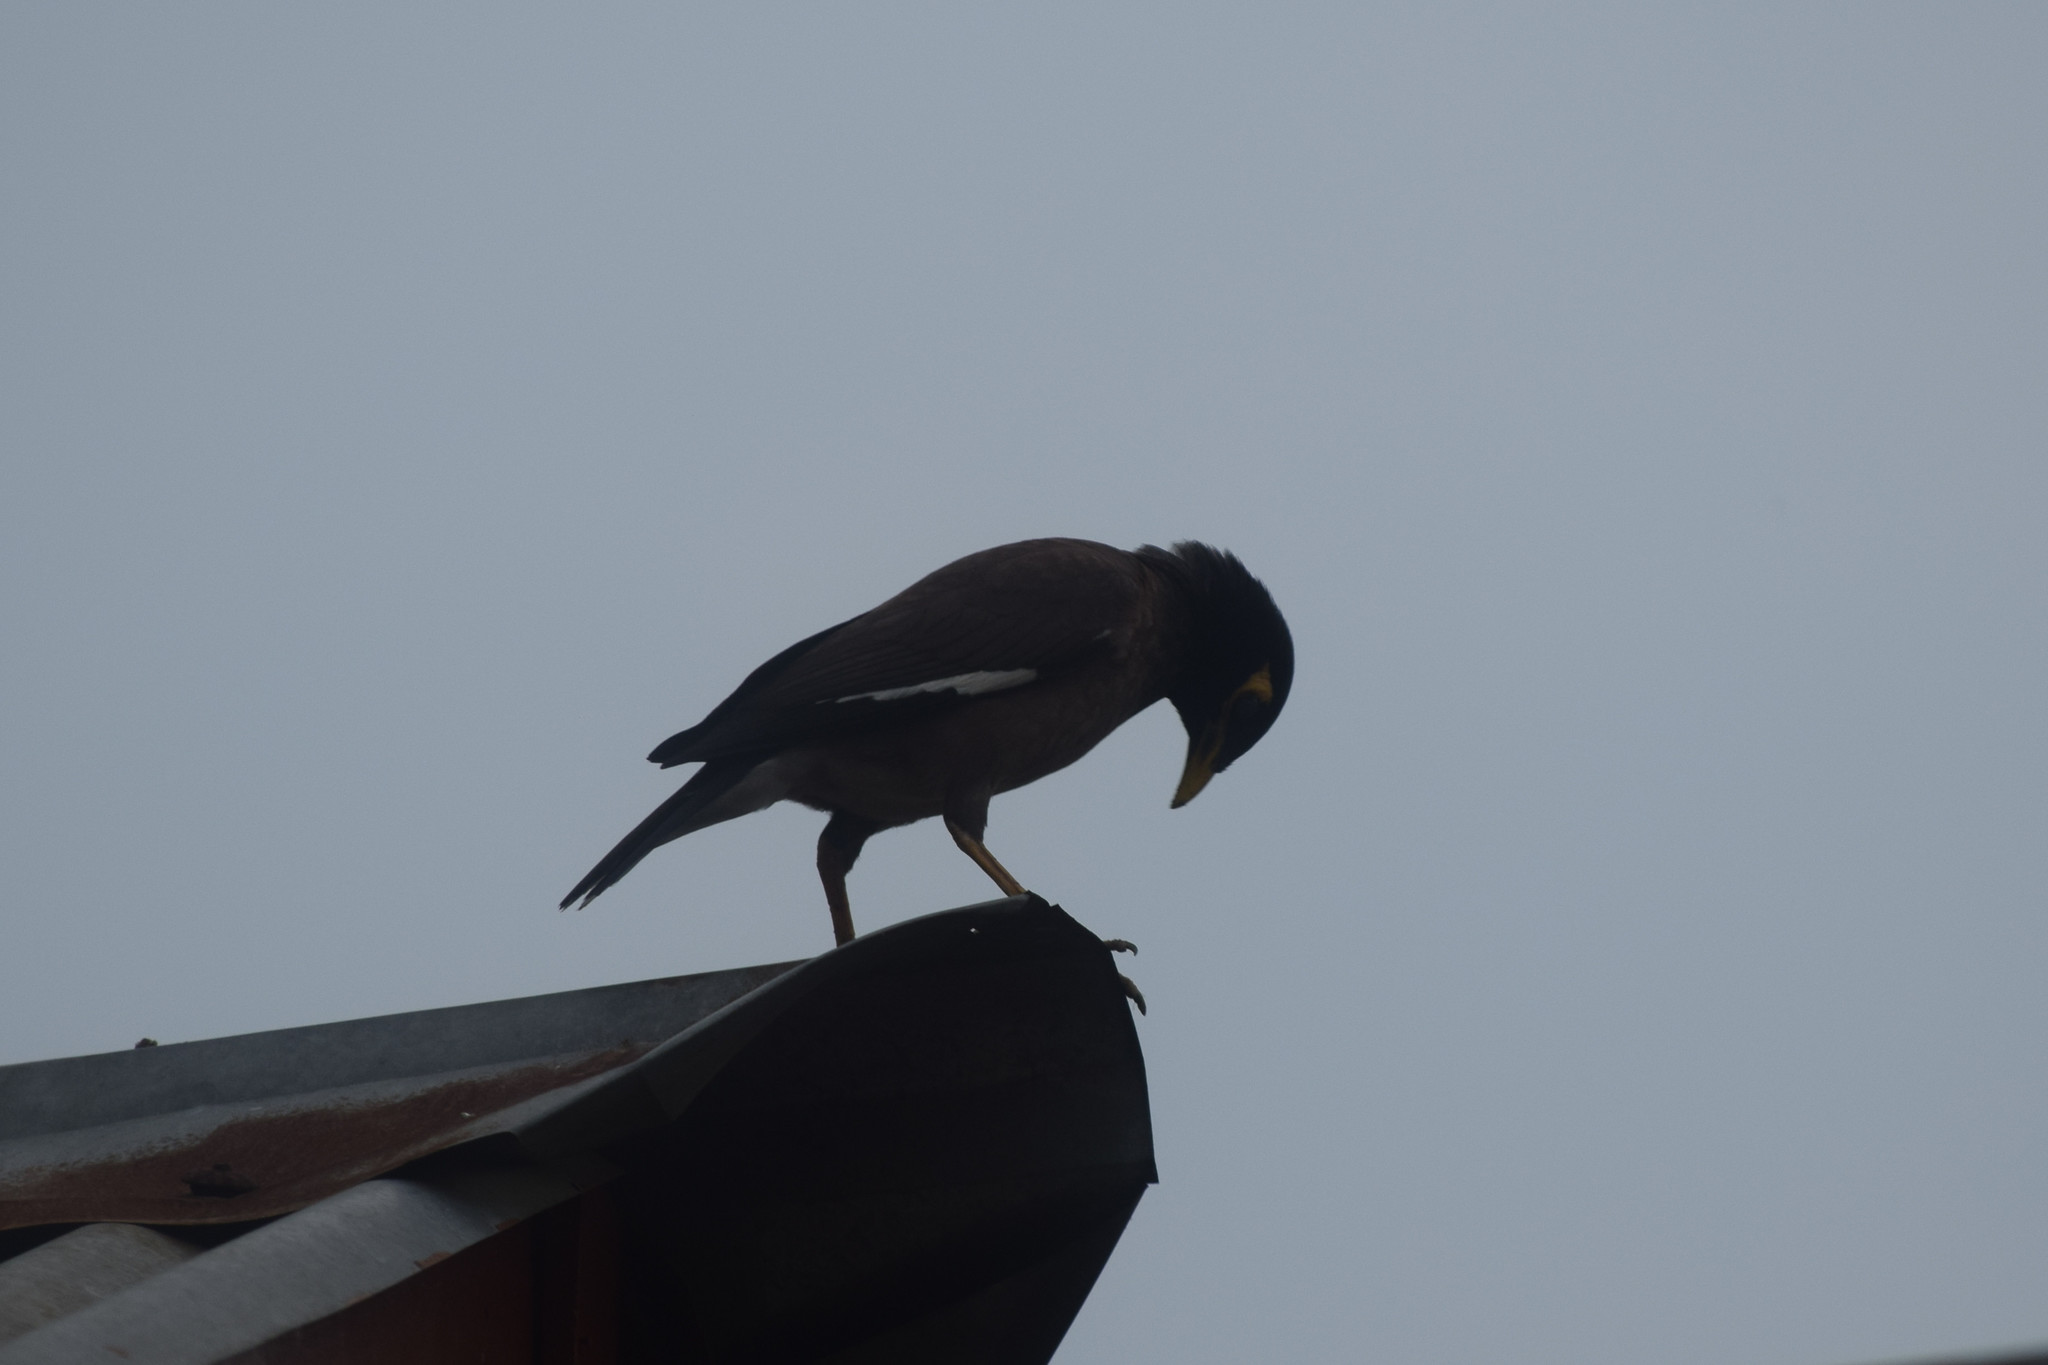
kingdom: Animalia
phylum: Chordata
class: Aves
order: Passeriformes
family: Sturnidae
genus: Acridotheres
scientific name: Acridotheres tristis
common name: Common myna
